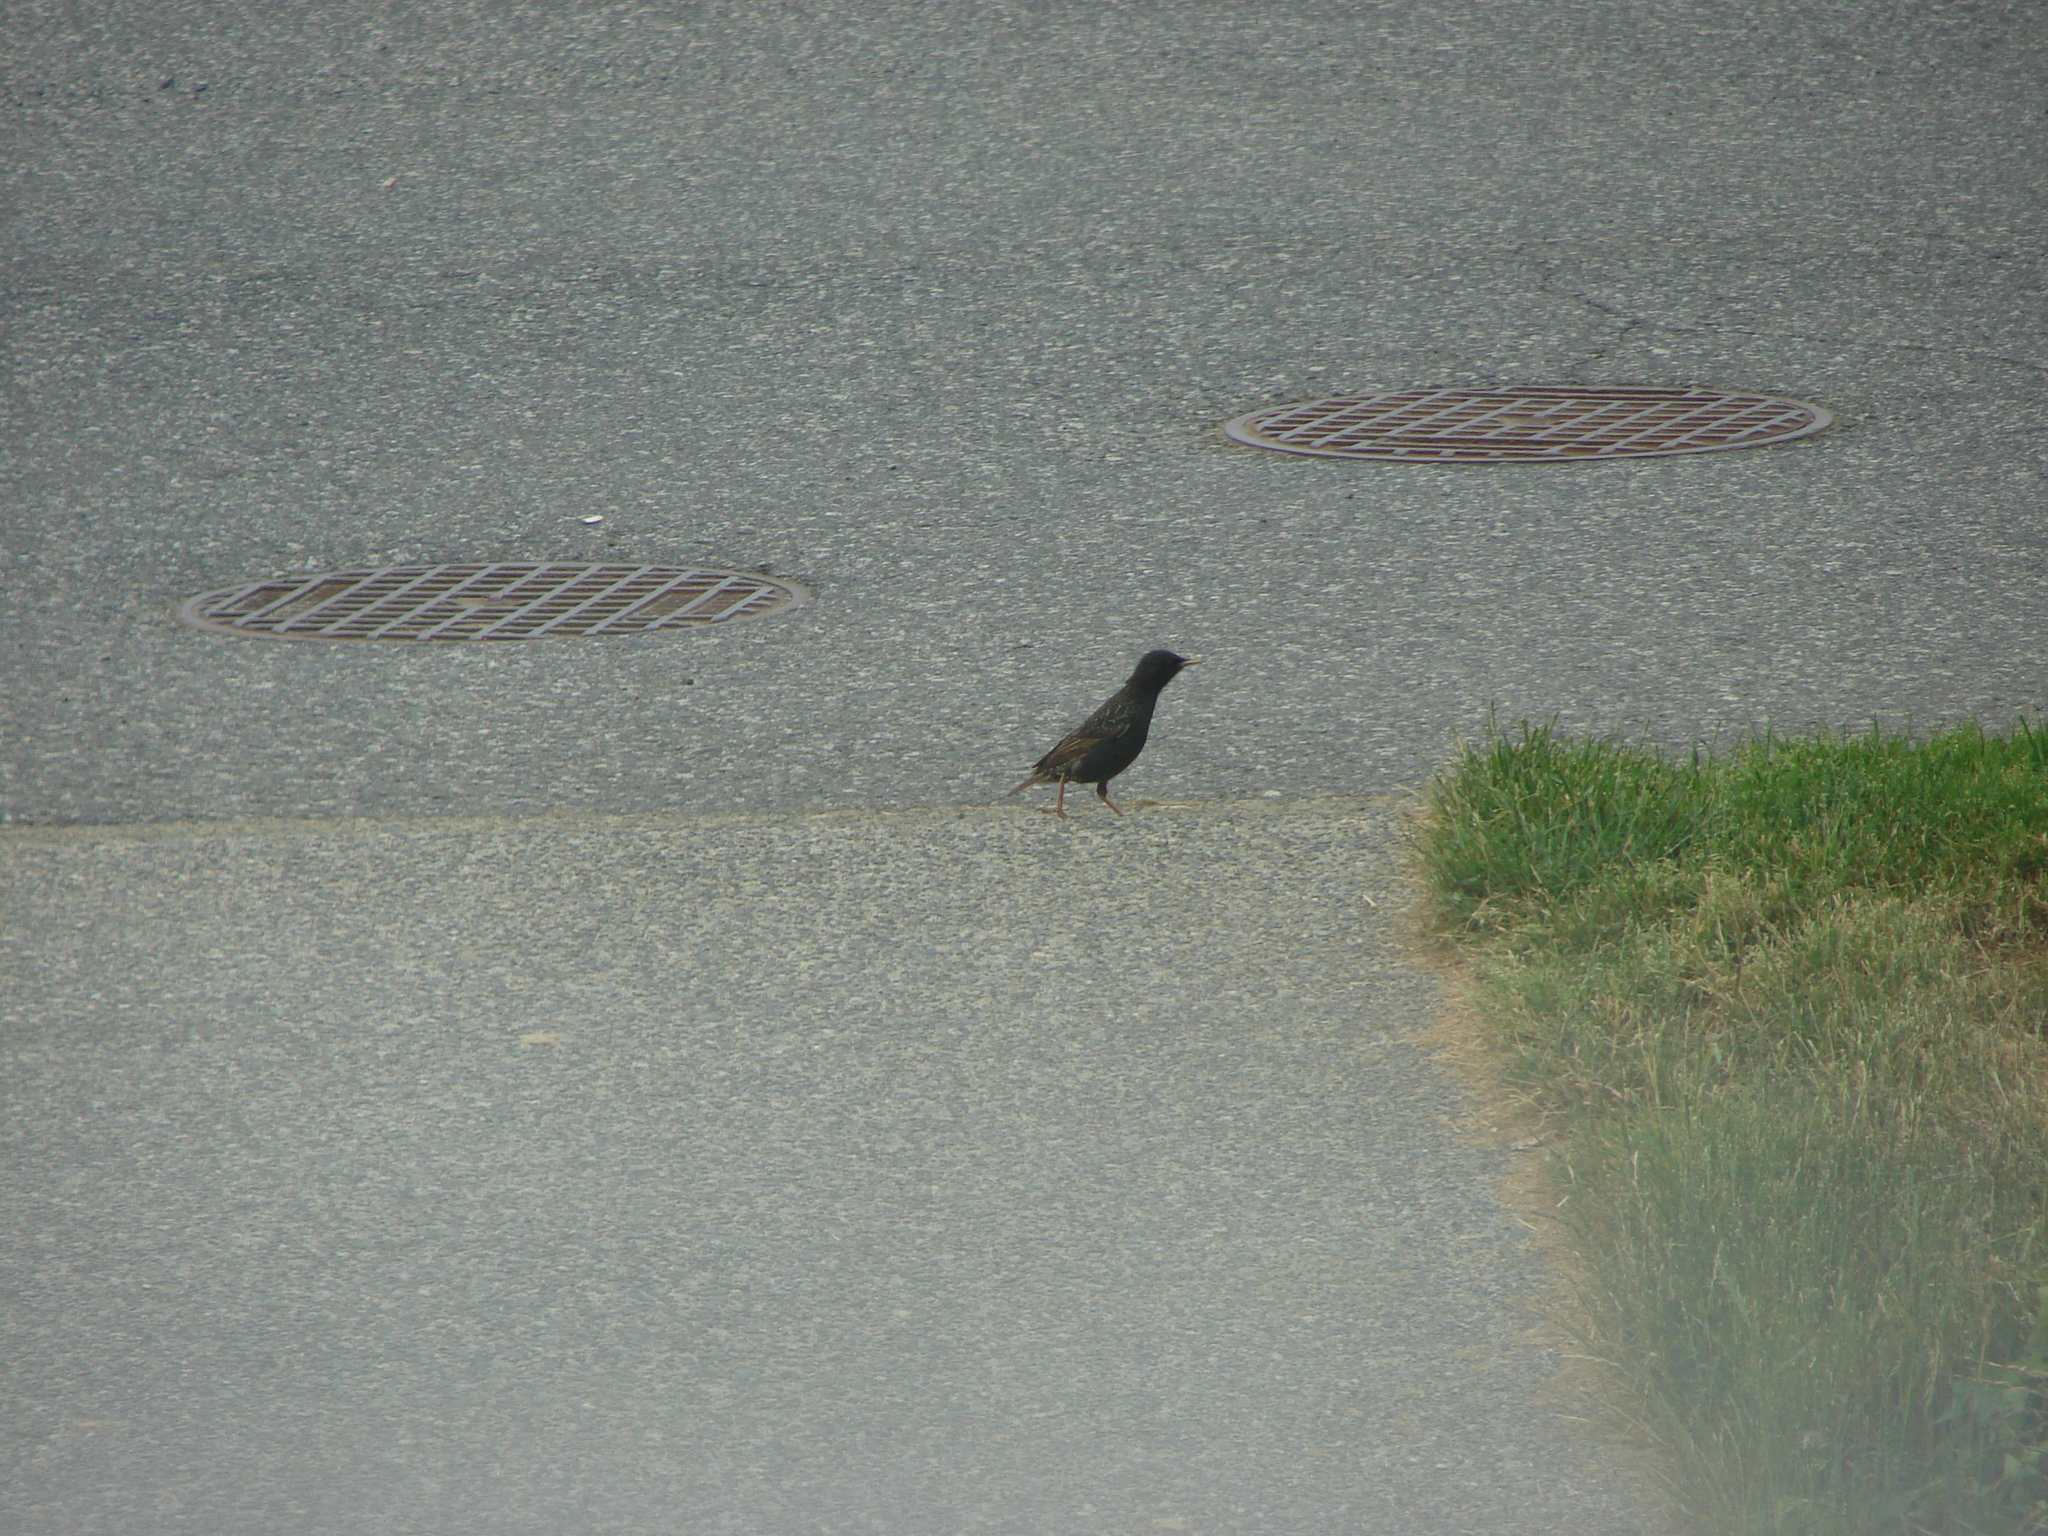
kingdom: Animalia
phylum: Chordata
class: Aves
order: Passeriformes
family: Sturnidae
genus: Sturnus
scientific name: Sturnus vulgaris
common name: Common starling
